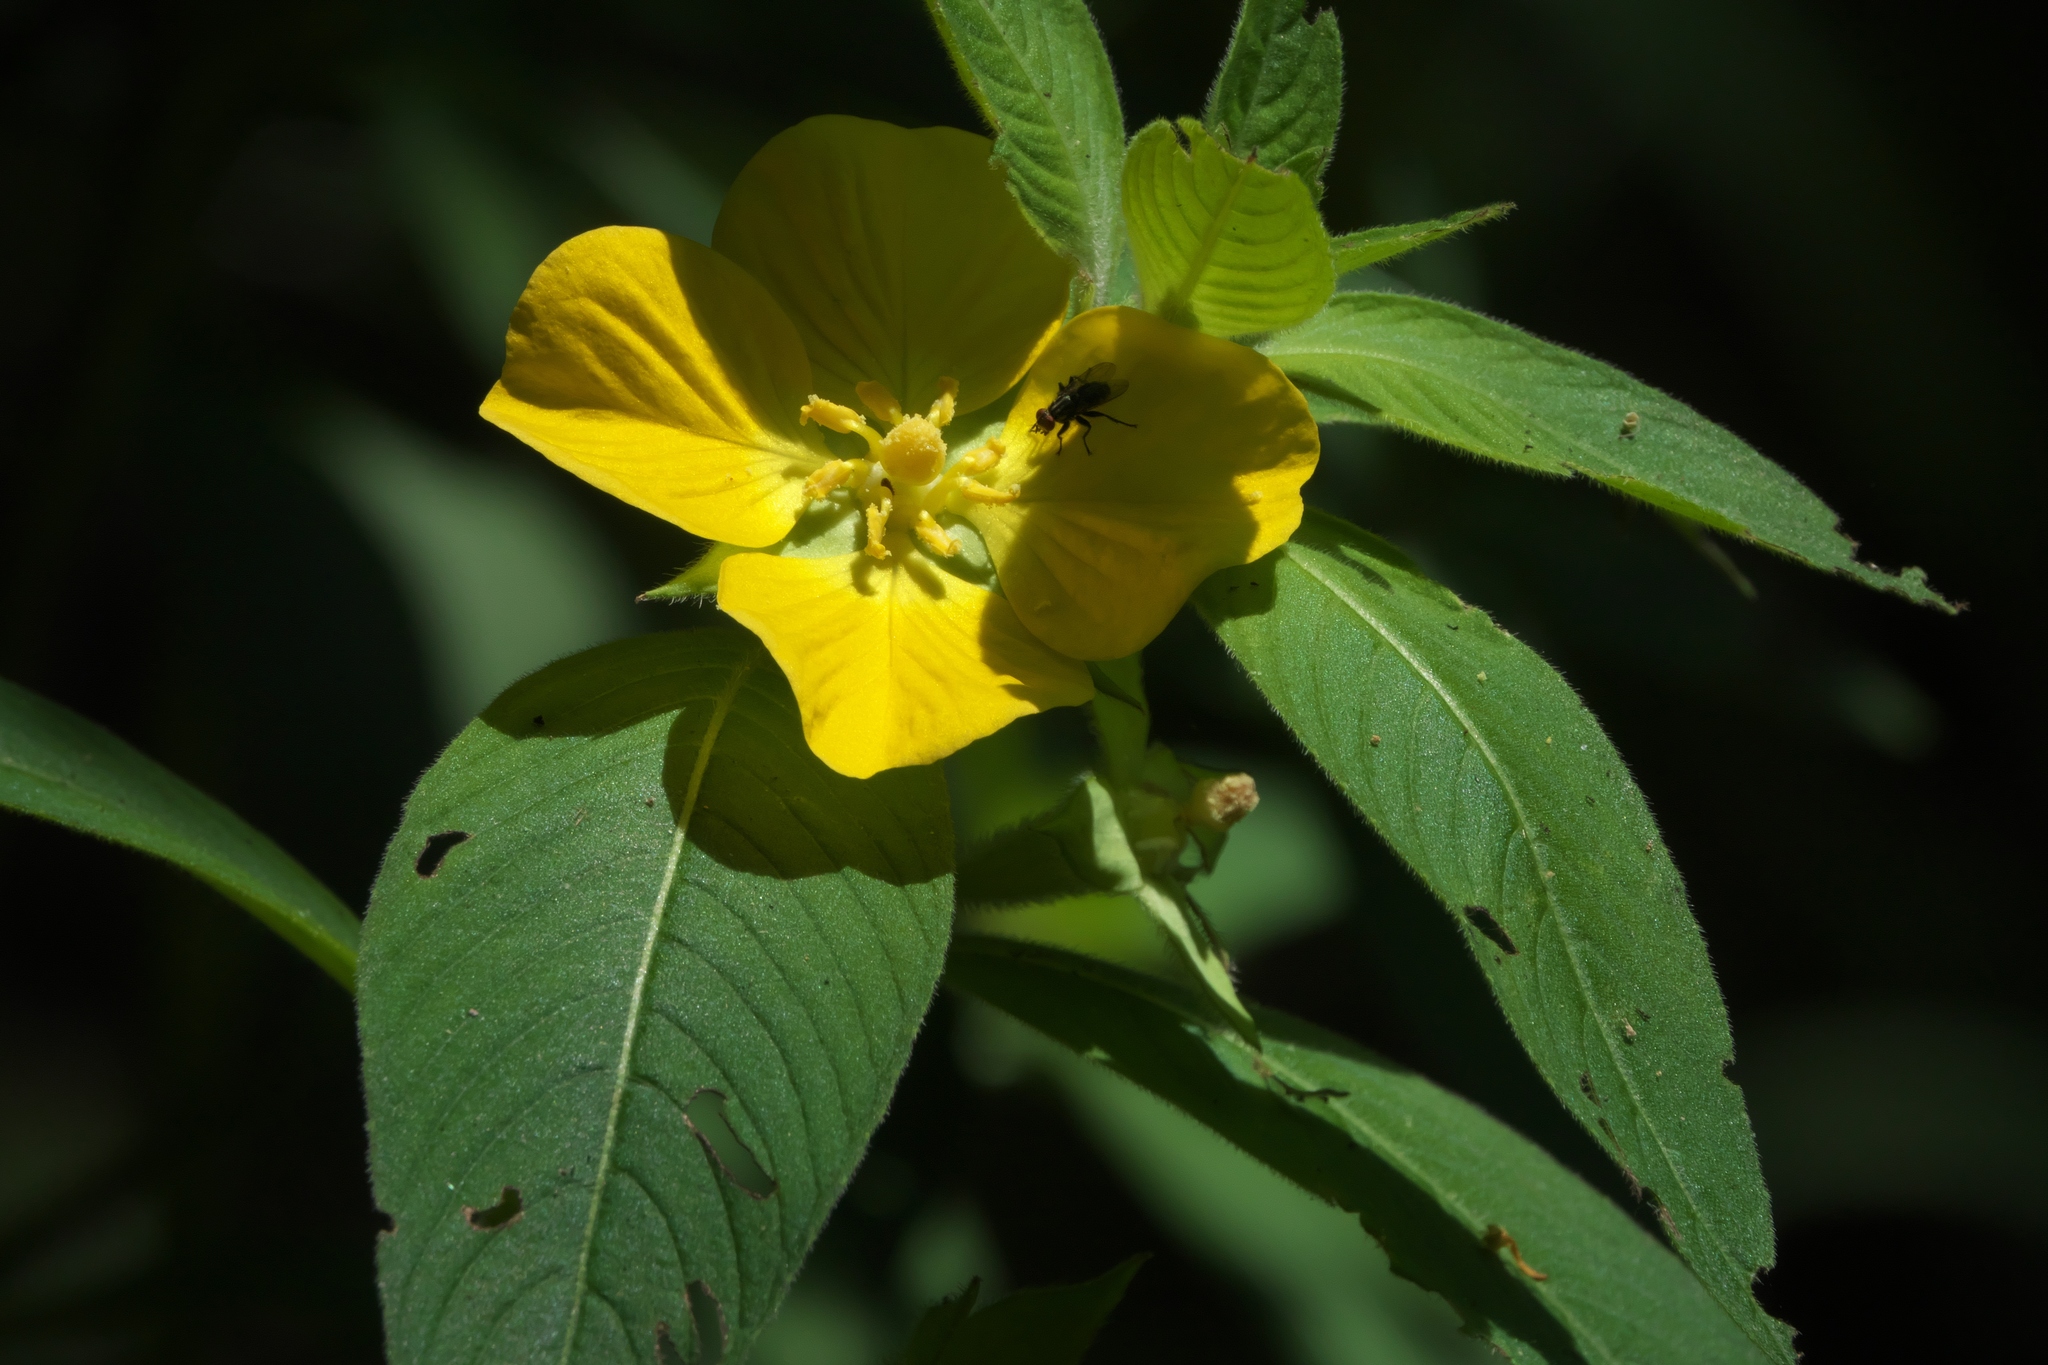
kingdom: Plantae
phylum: Tracheophyta
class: Magnoliopsida
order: Myrtales
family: Onagraceae
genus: Ludwigia
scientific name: Ludwigia peruviana
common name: Peruvian primrose-willow
